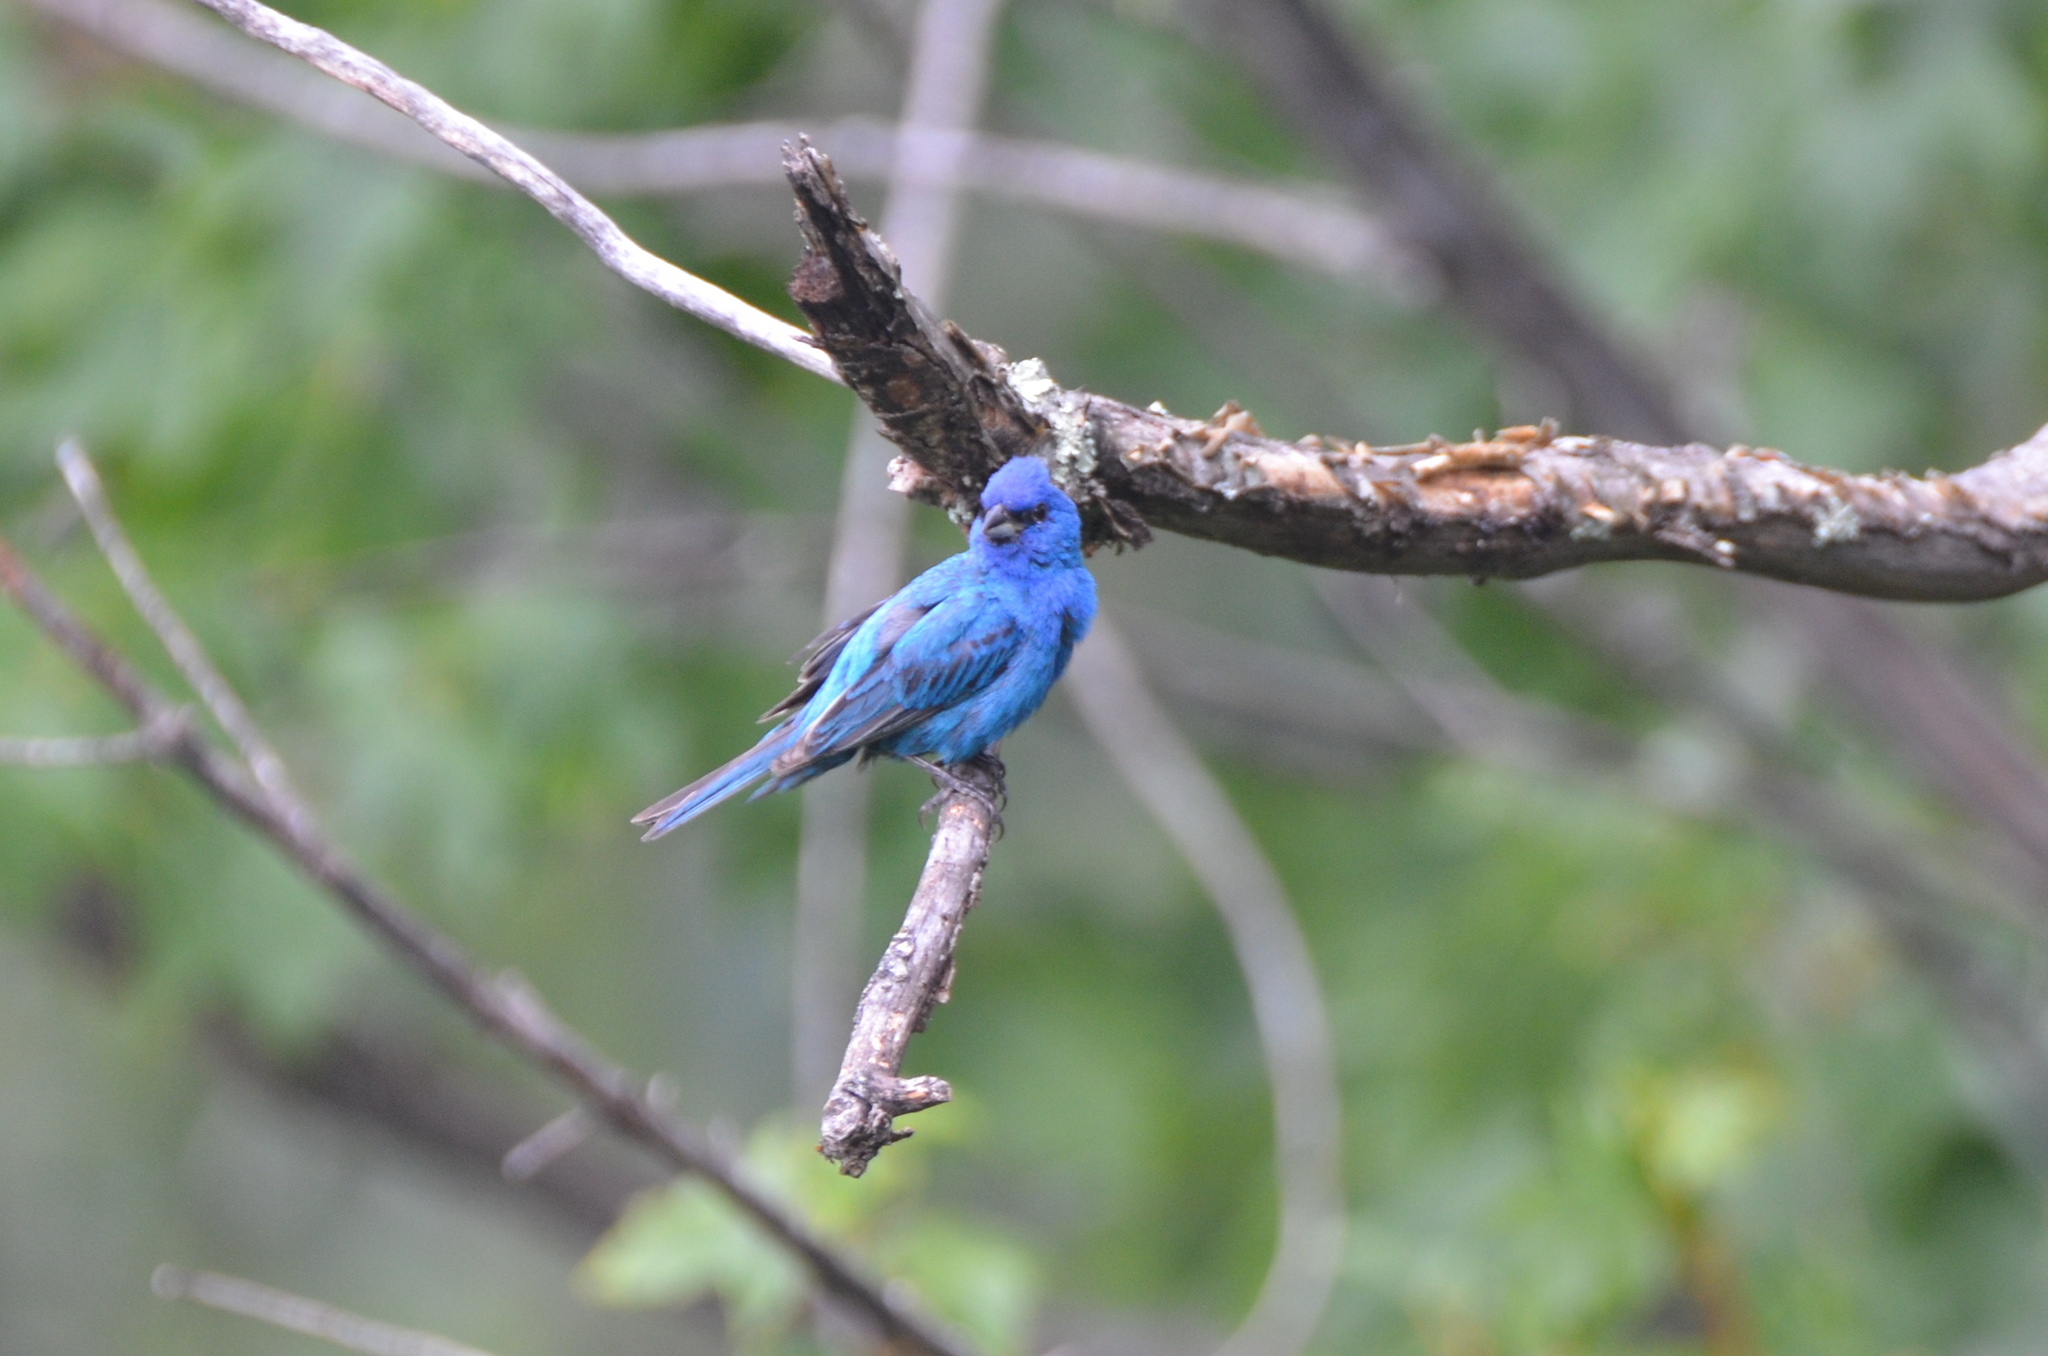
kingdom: Animalia
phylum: Chordata
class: Aves
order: Passeriformes
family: Cardinalidae
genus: Passerina
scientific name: Passerina cyanea
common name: Indigo bunting
